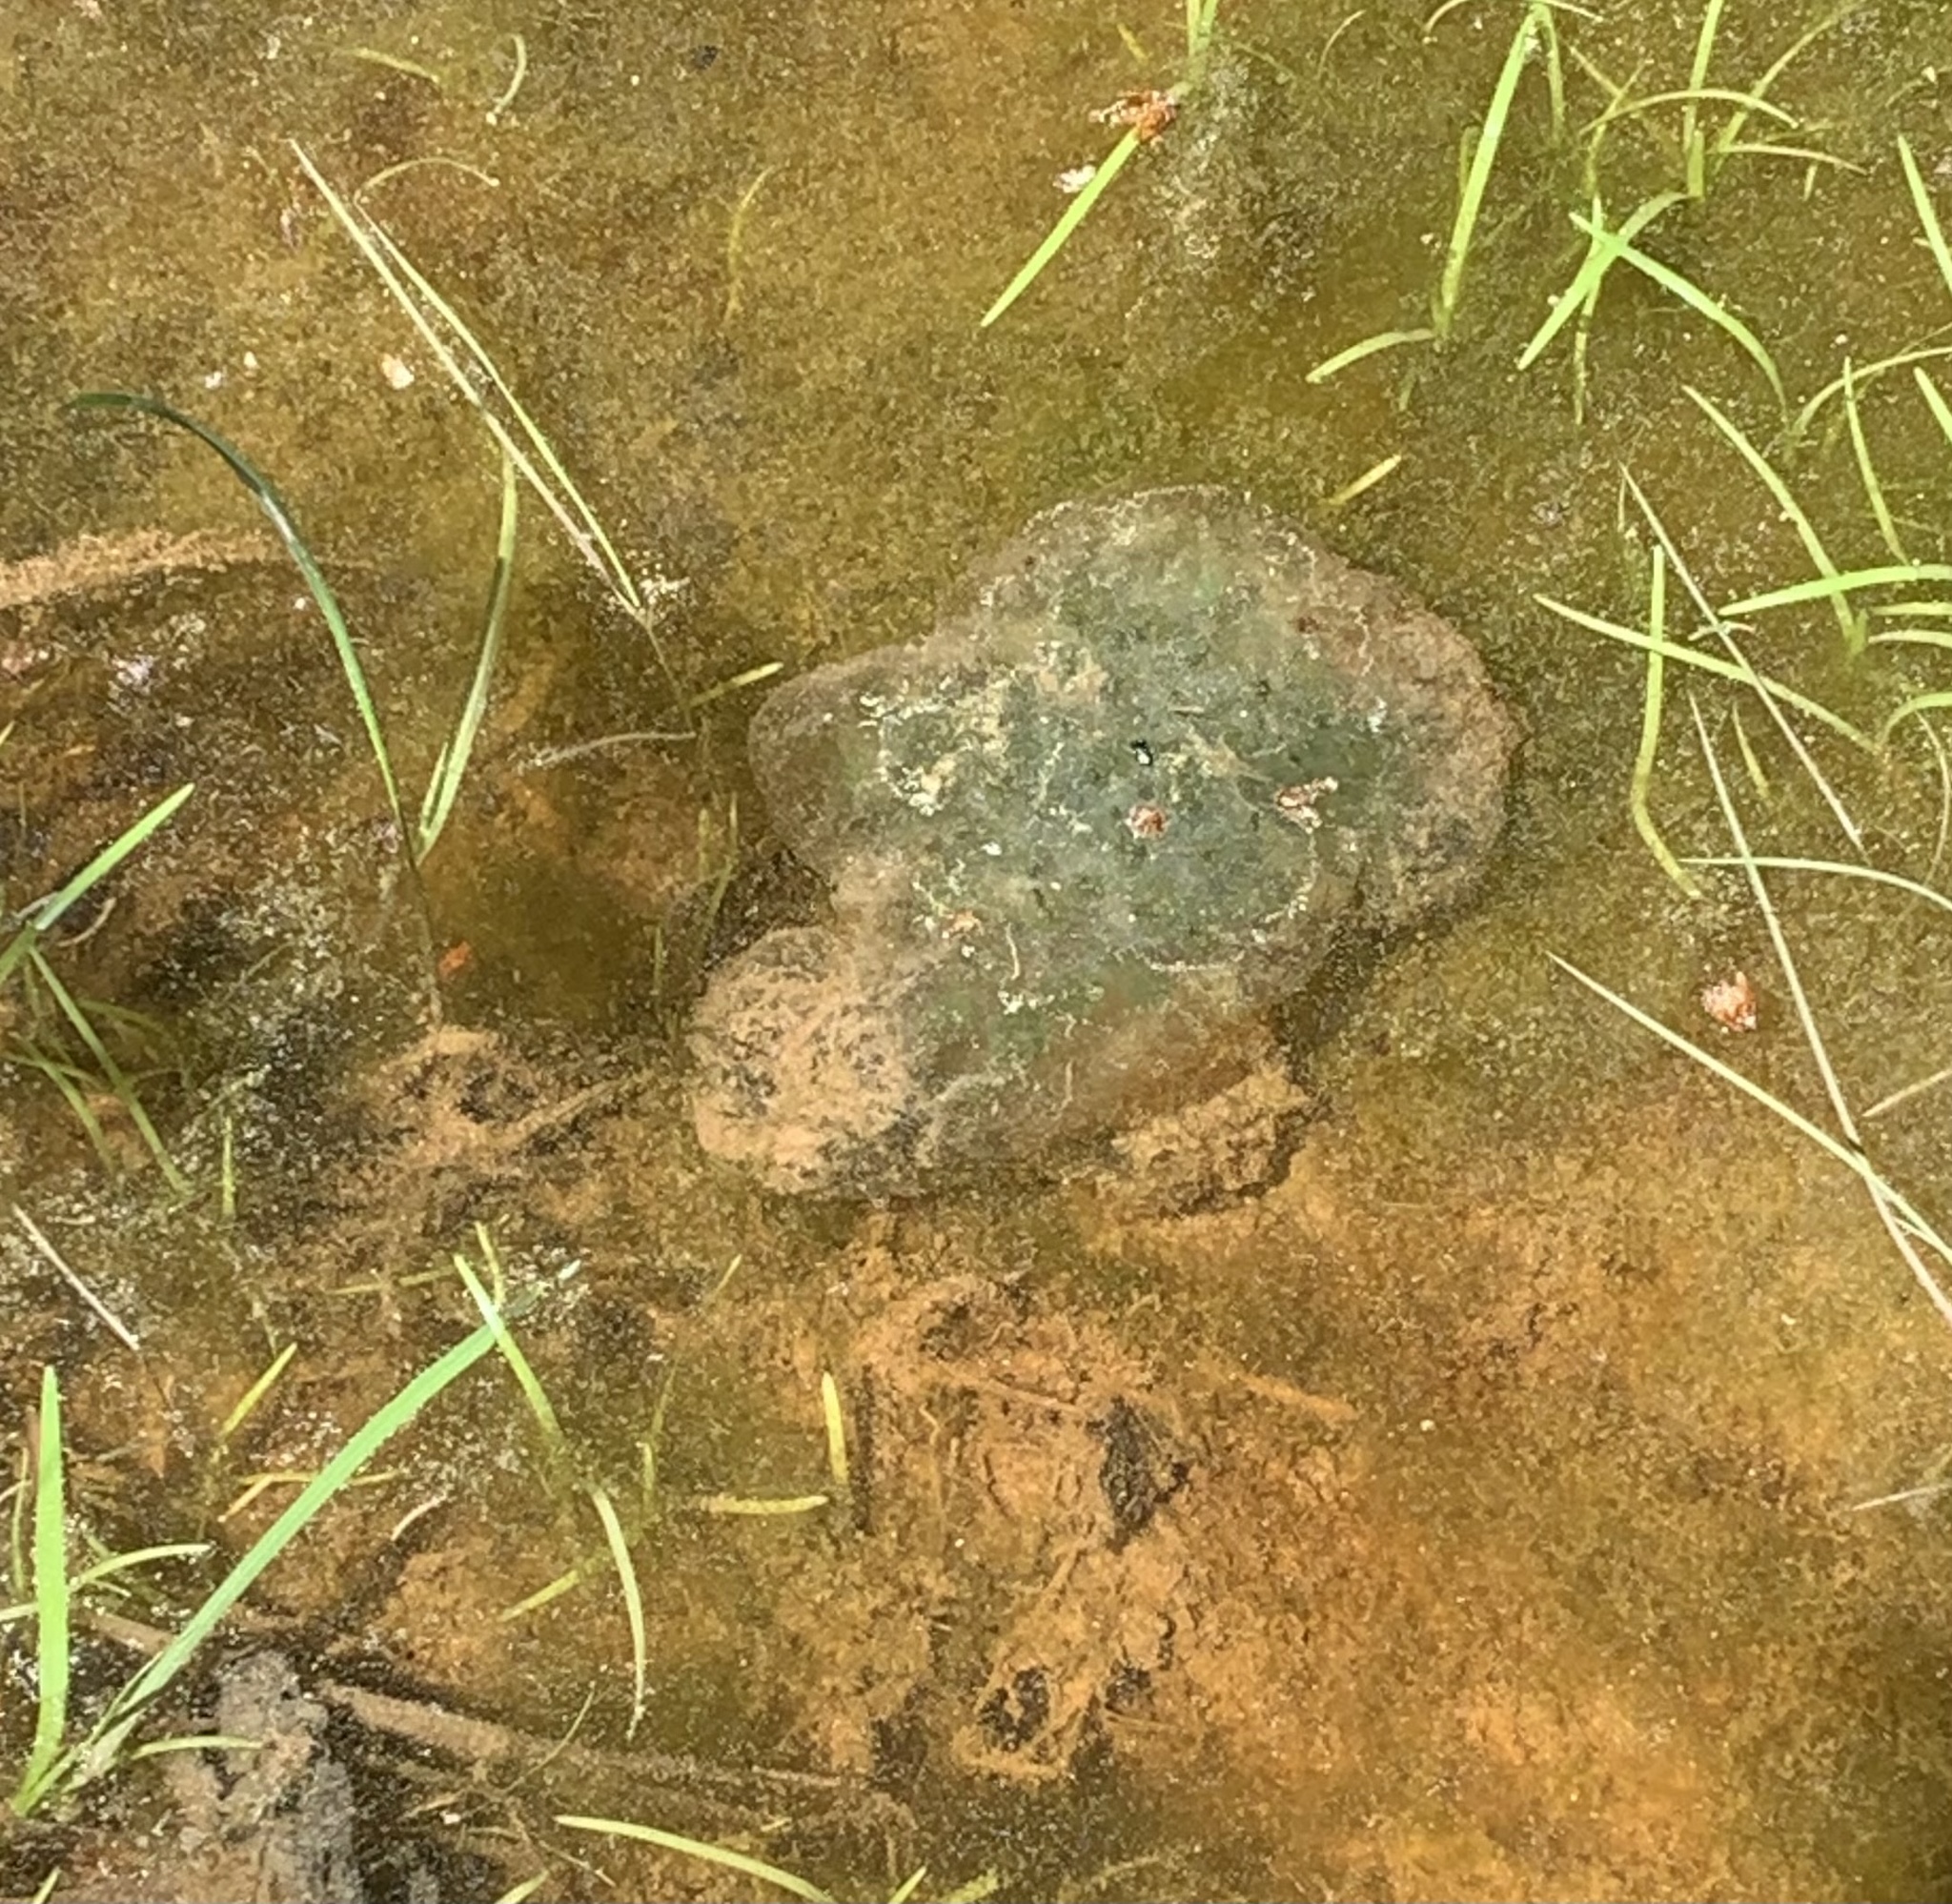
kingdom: Animalia
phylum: Chordata
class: Amphibia
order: Caudata
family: Ambystomatidae
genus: Ambystoma
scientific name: Ambystoma maculatum
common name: Spotted salamander
